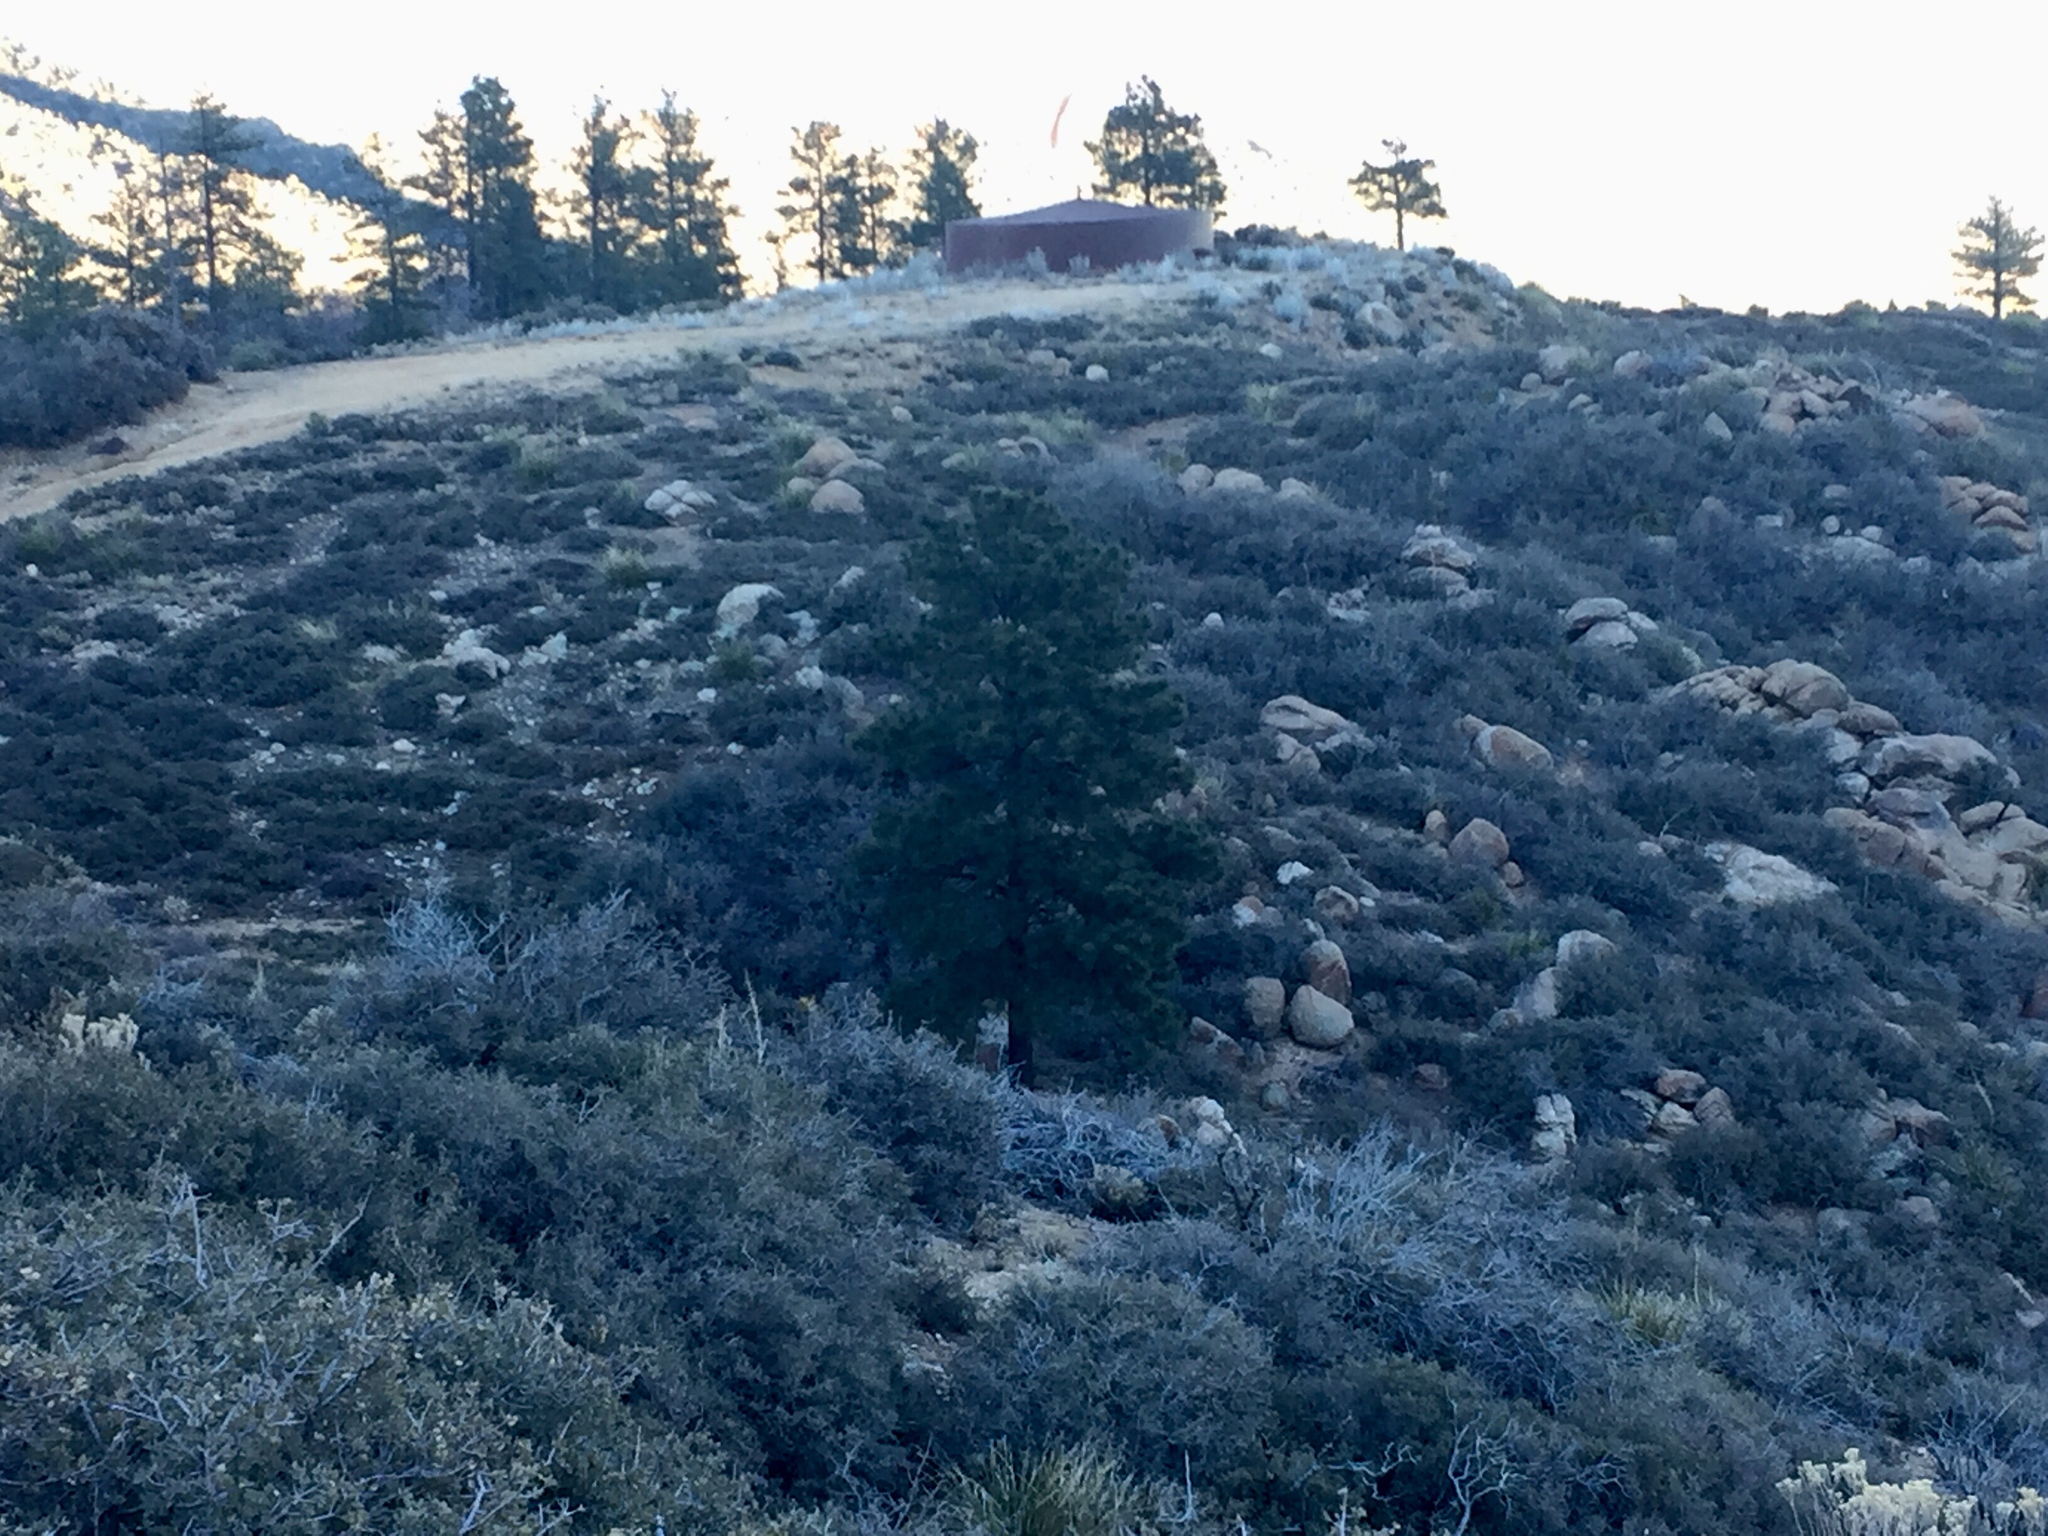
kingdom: Plantae
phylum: Tracheophyta
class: Pinopsida
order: Pinales
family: Pinaceae
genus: Pinus
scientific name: Pinus ponderosa
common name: Western yellow-pine
